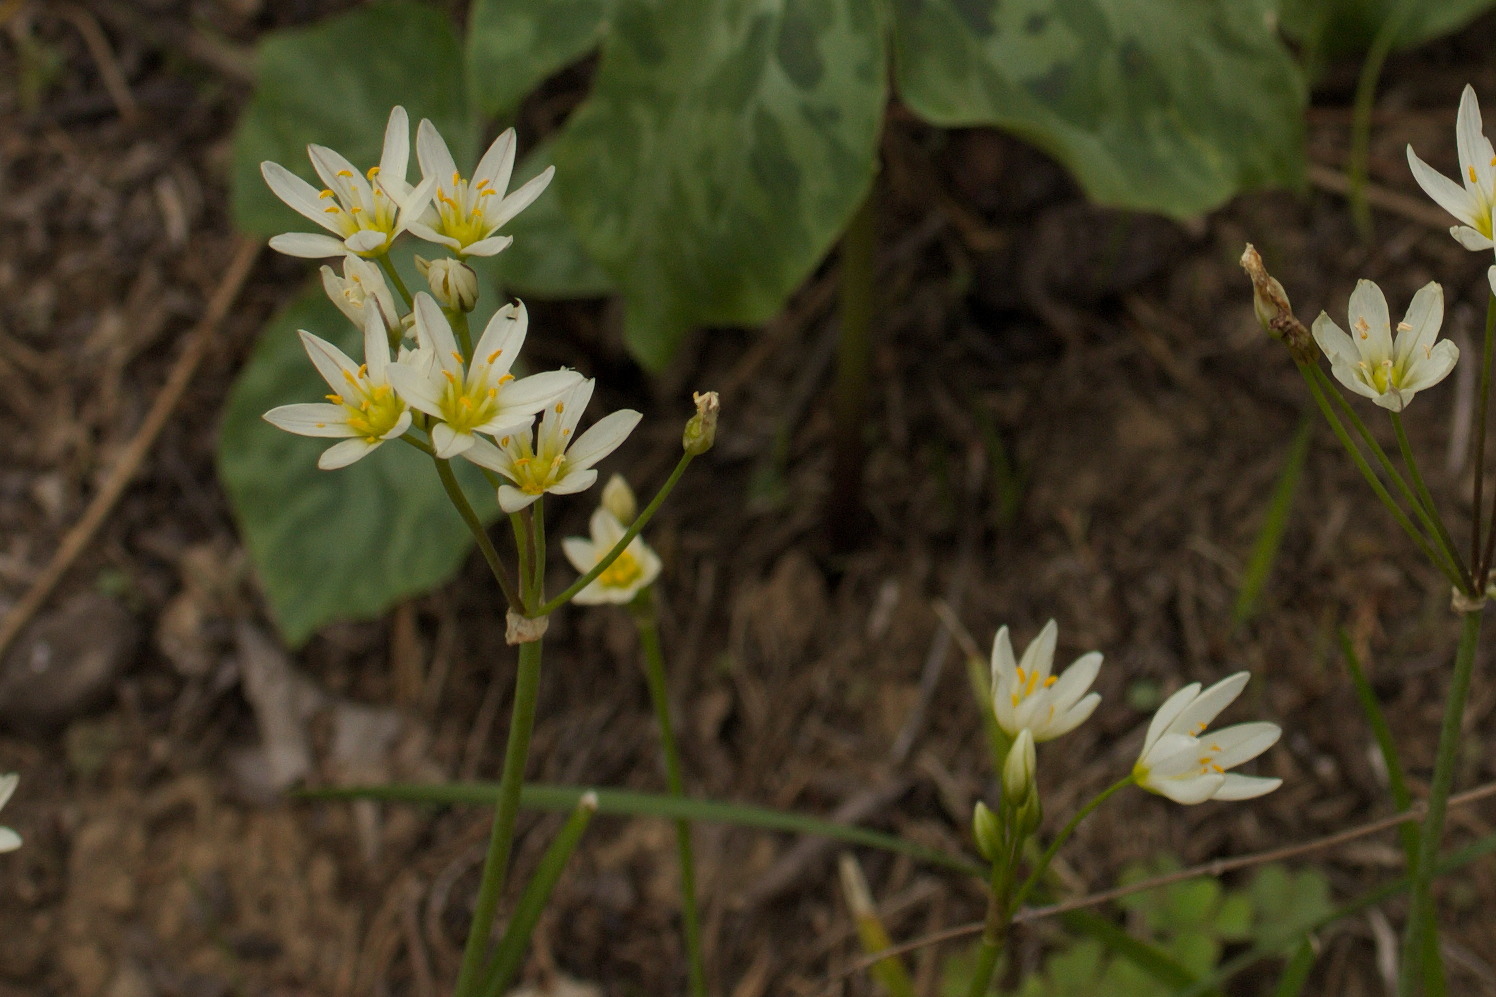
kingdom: Plantae
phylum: Tracheophyta
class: Liliopsida
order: Asparagales
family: Amaryllidaceae
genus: Nothoscordum
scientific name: Nothoscordum bivalve
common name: Crow-poison
